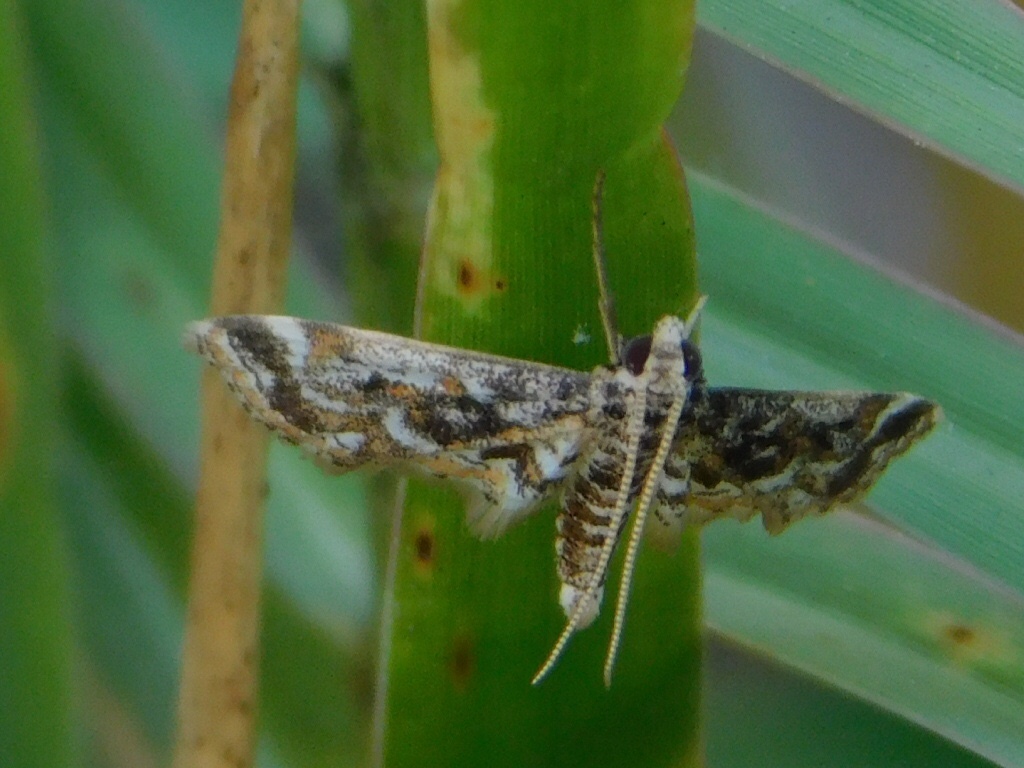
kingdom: Animalia
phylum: Arthropoda
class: Insecta
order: Lepidoptera
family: Crambidae
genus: Parapoynx
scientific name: Parapoynx diminutalis
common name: Hydrilla leafcutter
